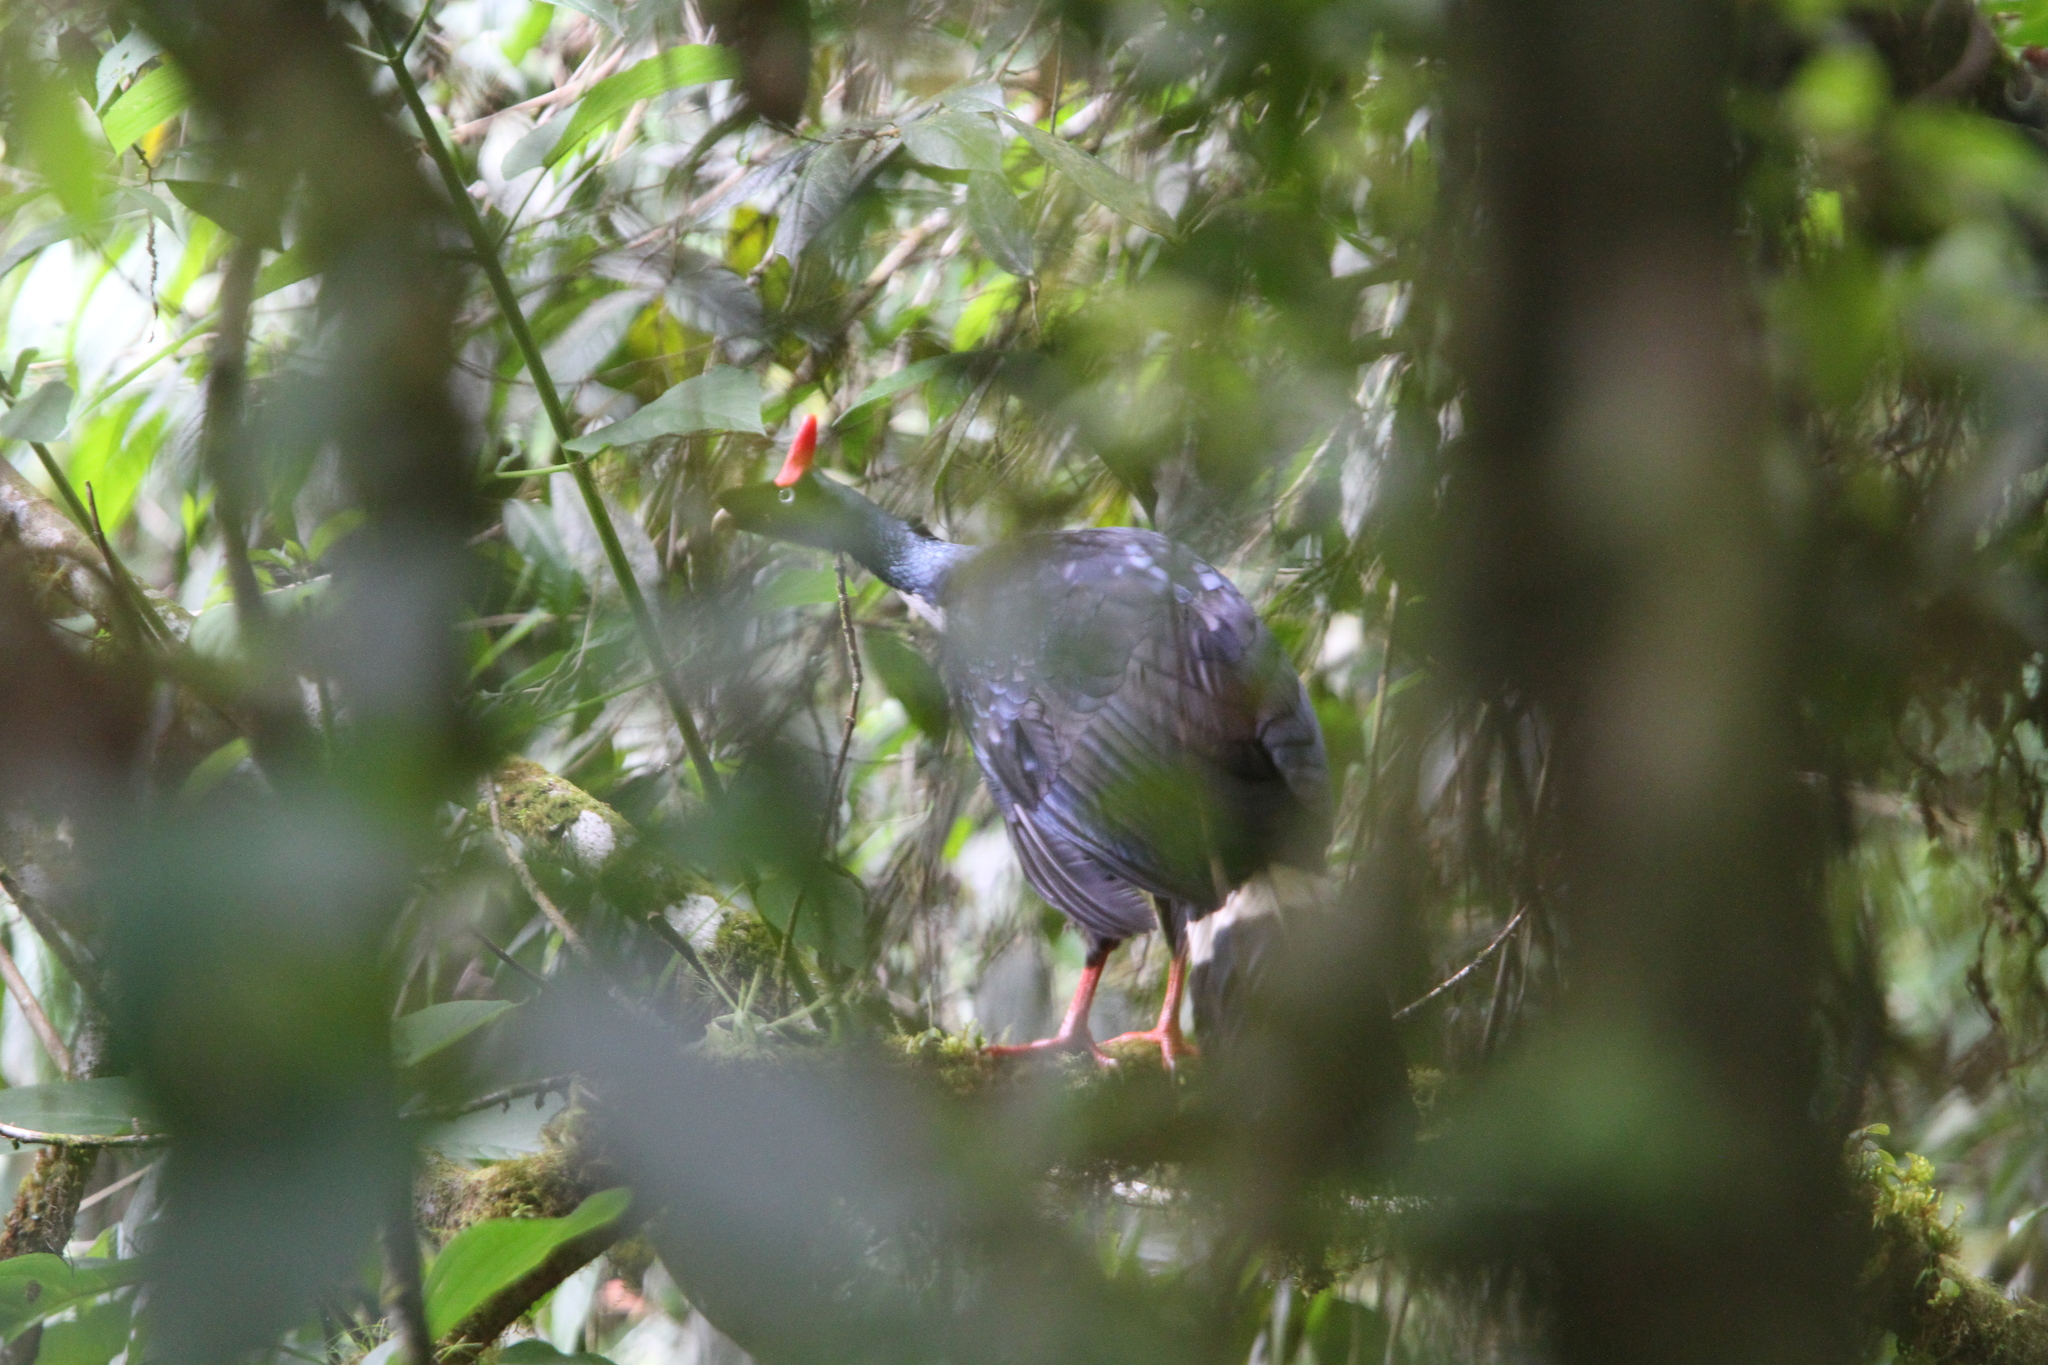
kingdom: Animalia
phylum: Chordata
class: Aves
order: Galliformes
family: Cracidae
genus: Oreophasis
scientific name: Oreophasis derbianus
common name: Horned guan
